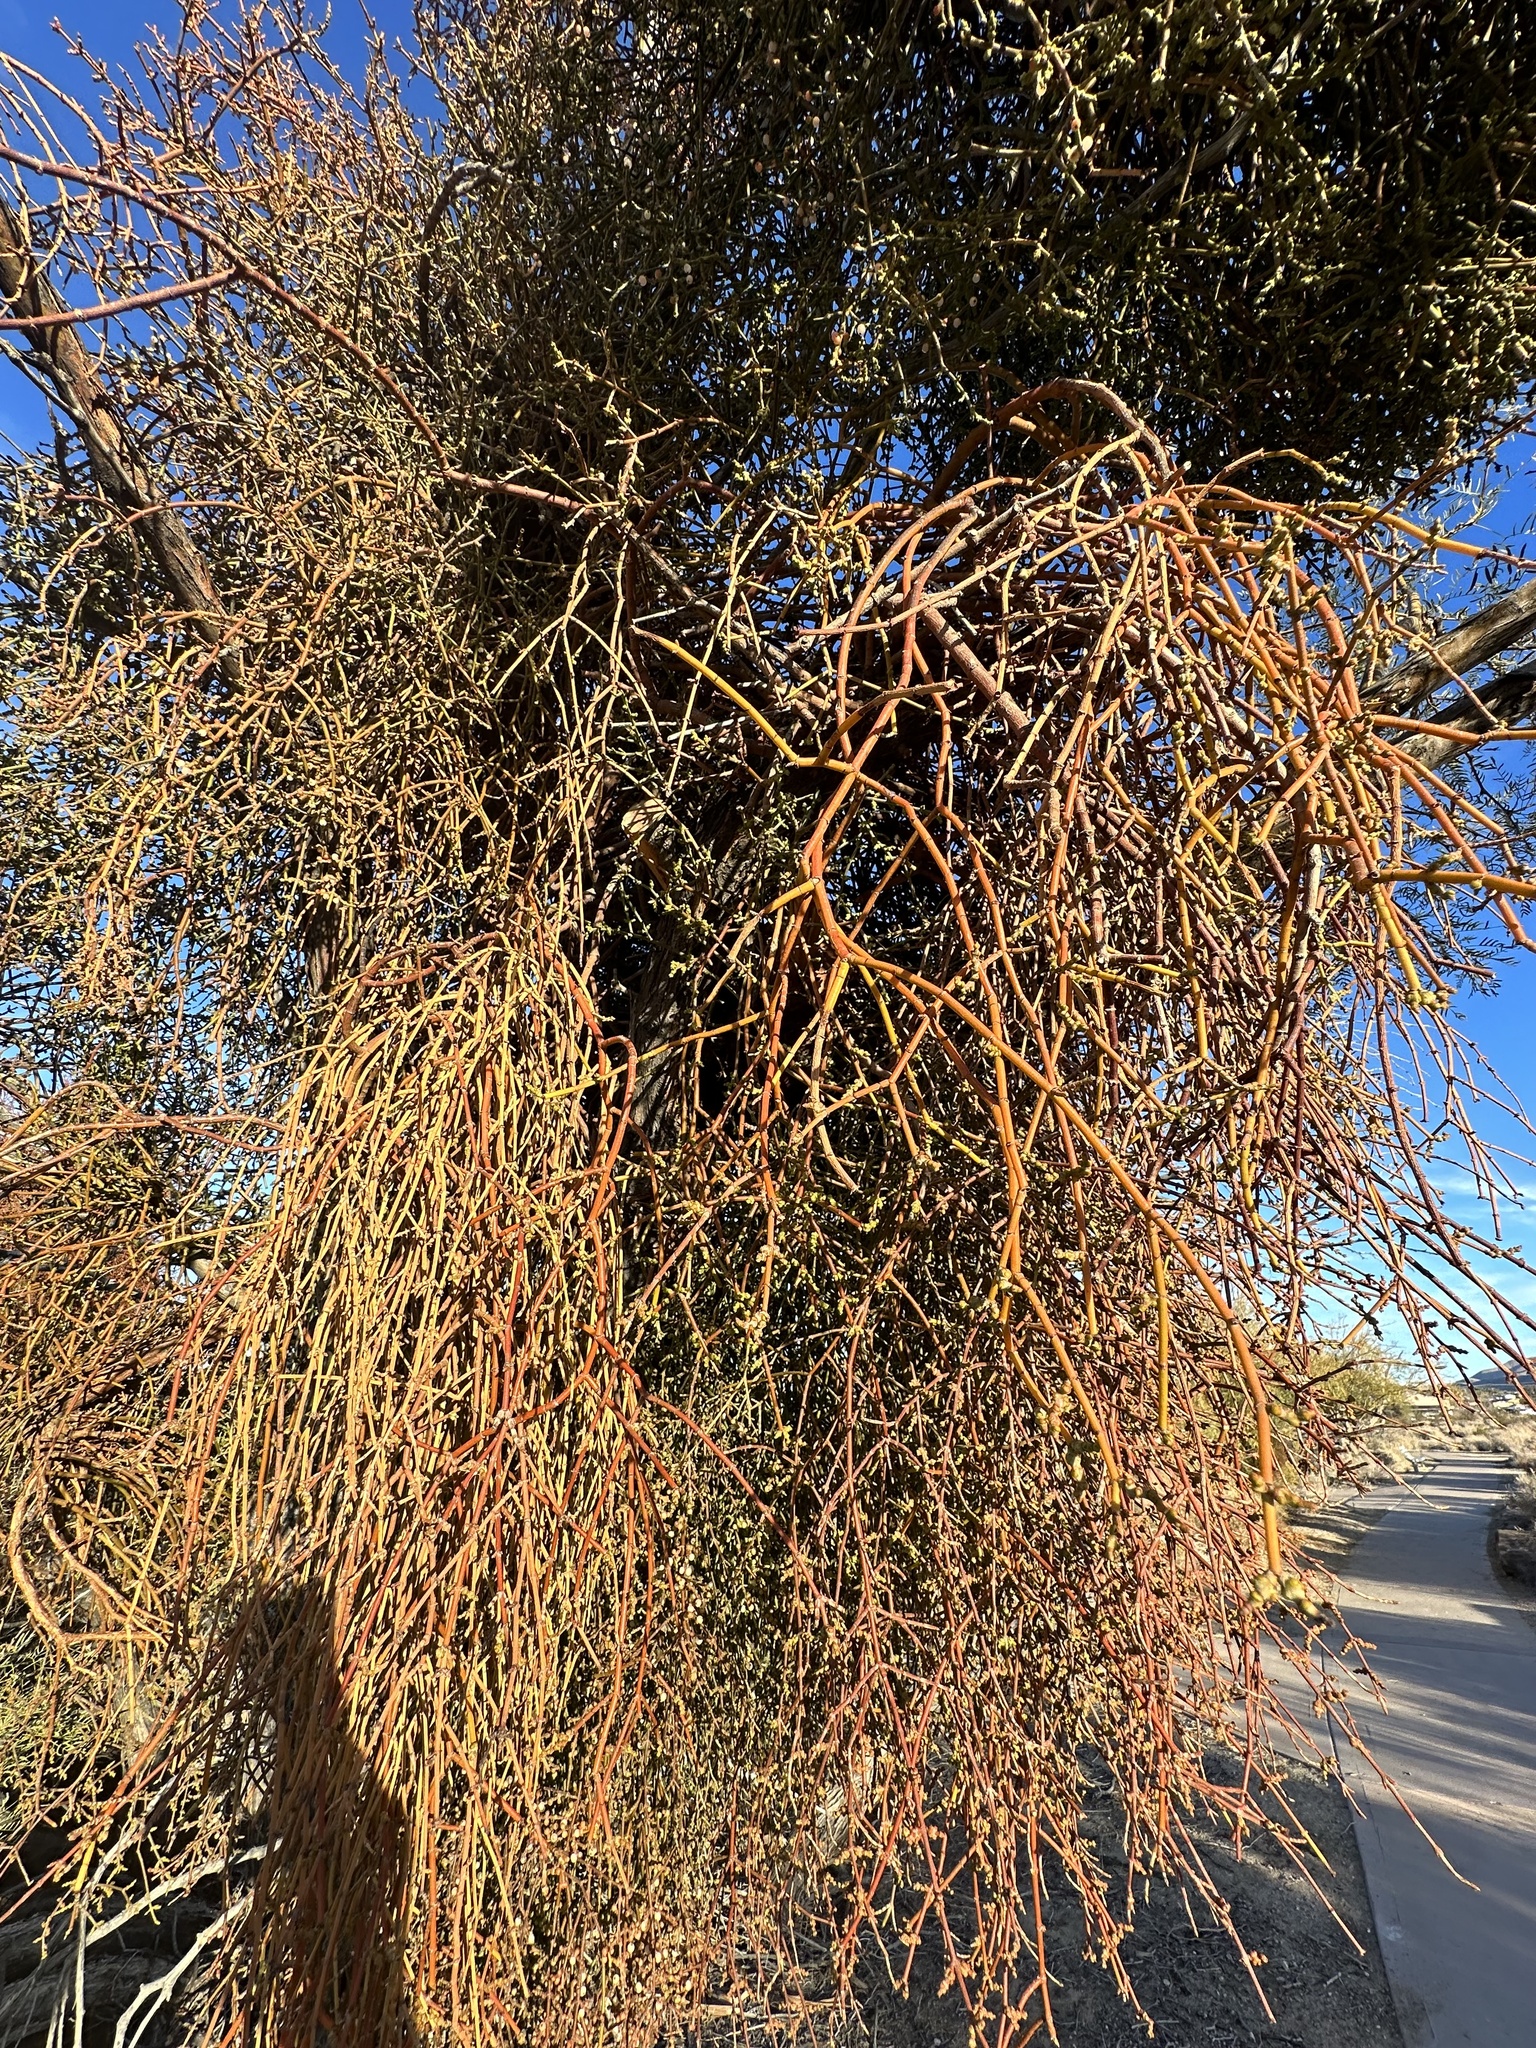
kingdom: Plantae
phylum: Tracheophyta
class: Magnoliopsida
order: Santalales
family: Viscaceae
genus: Phoradendron
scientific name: Phoradendron californicum
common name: Acacia mistletoe
